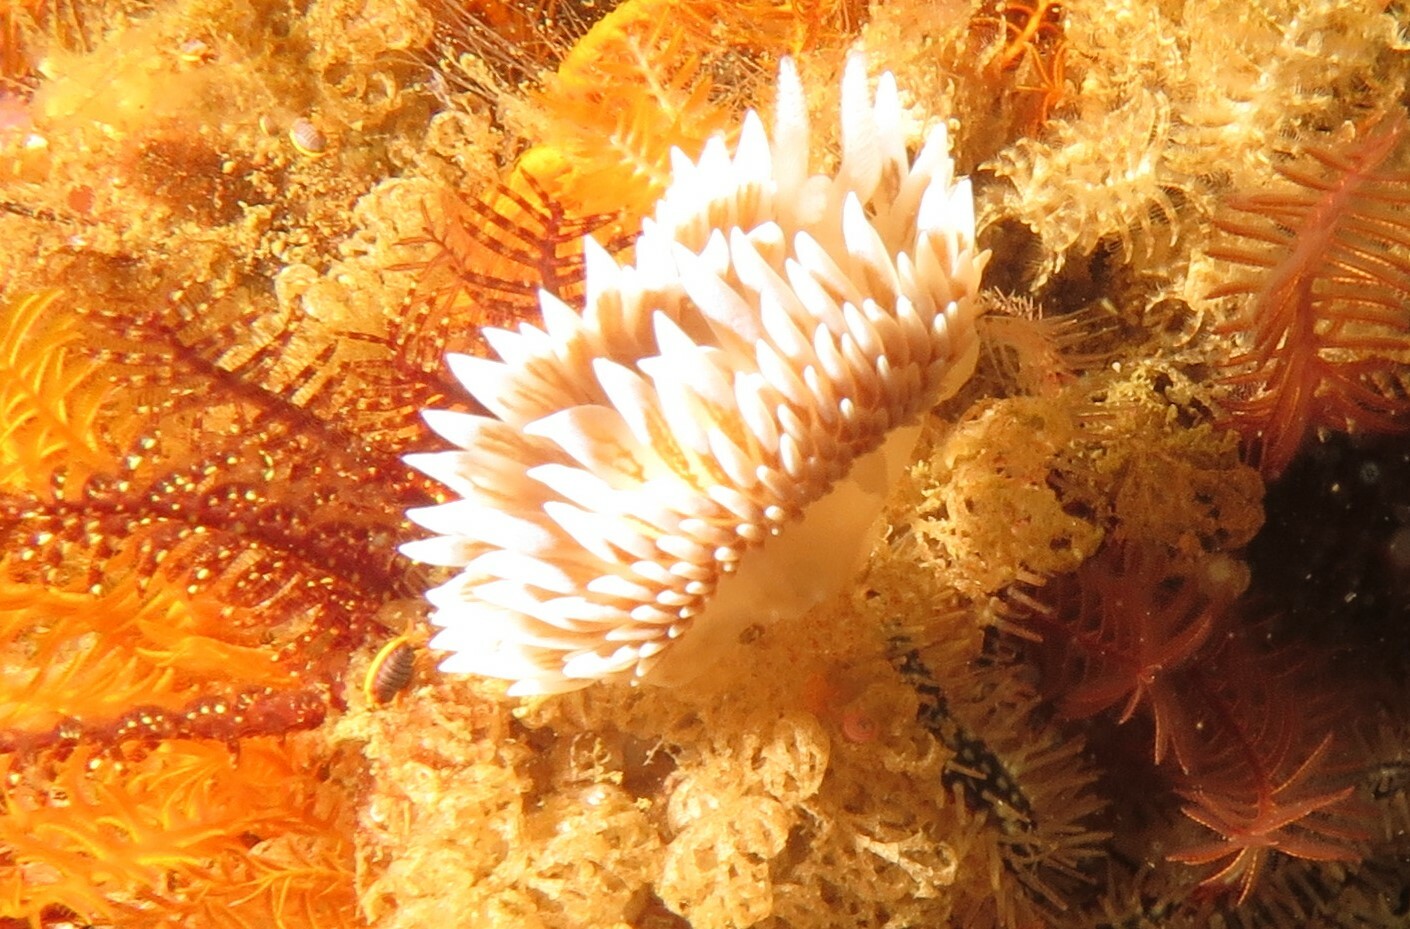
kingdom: Animalia
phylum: Mollusca
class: Gastropoda
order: Nudibranchia
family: Janolidae
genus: Antiopella
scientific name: Antiopella capensis
